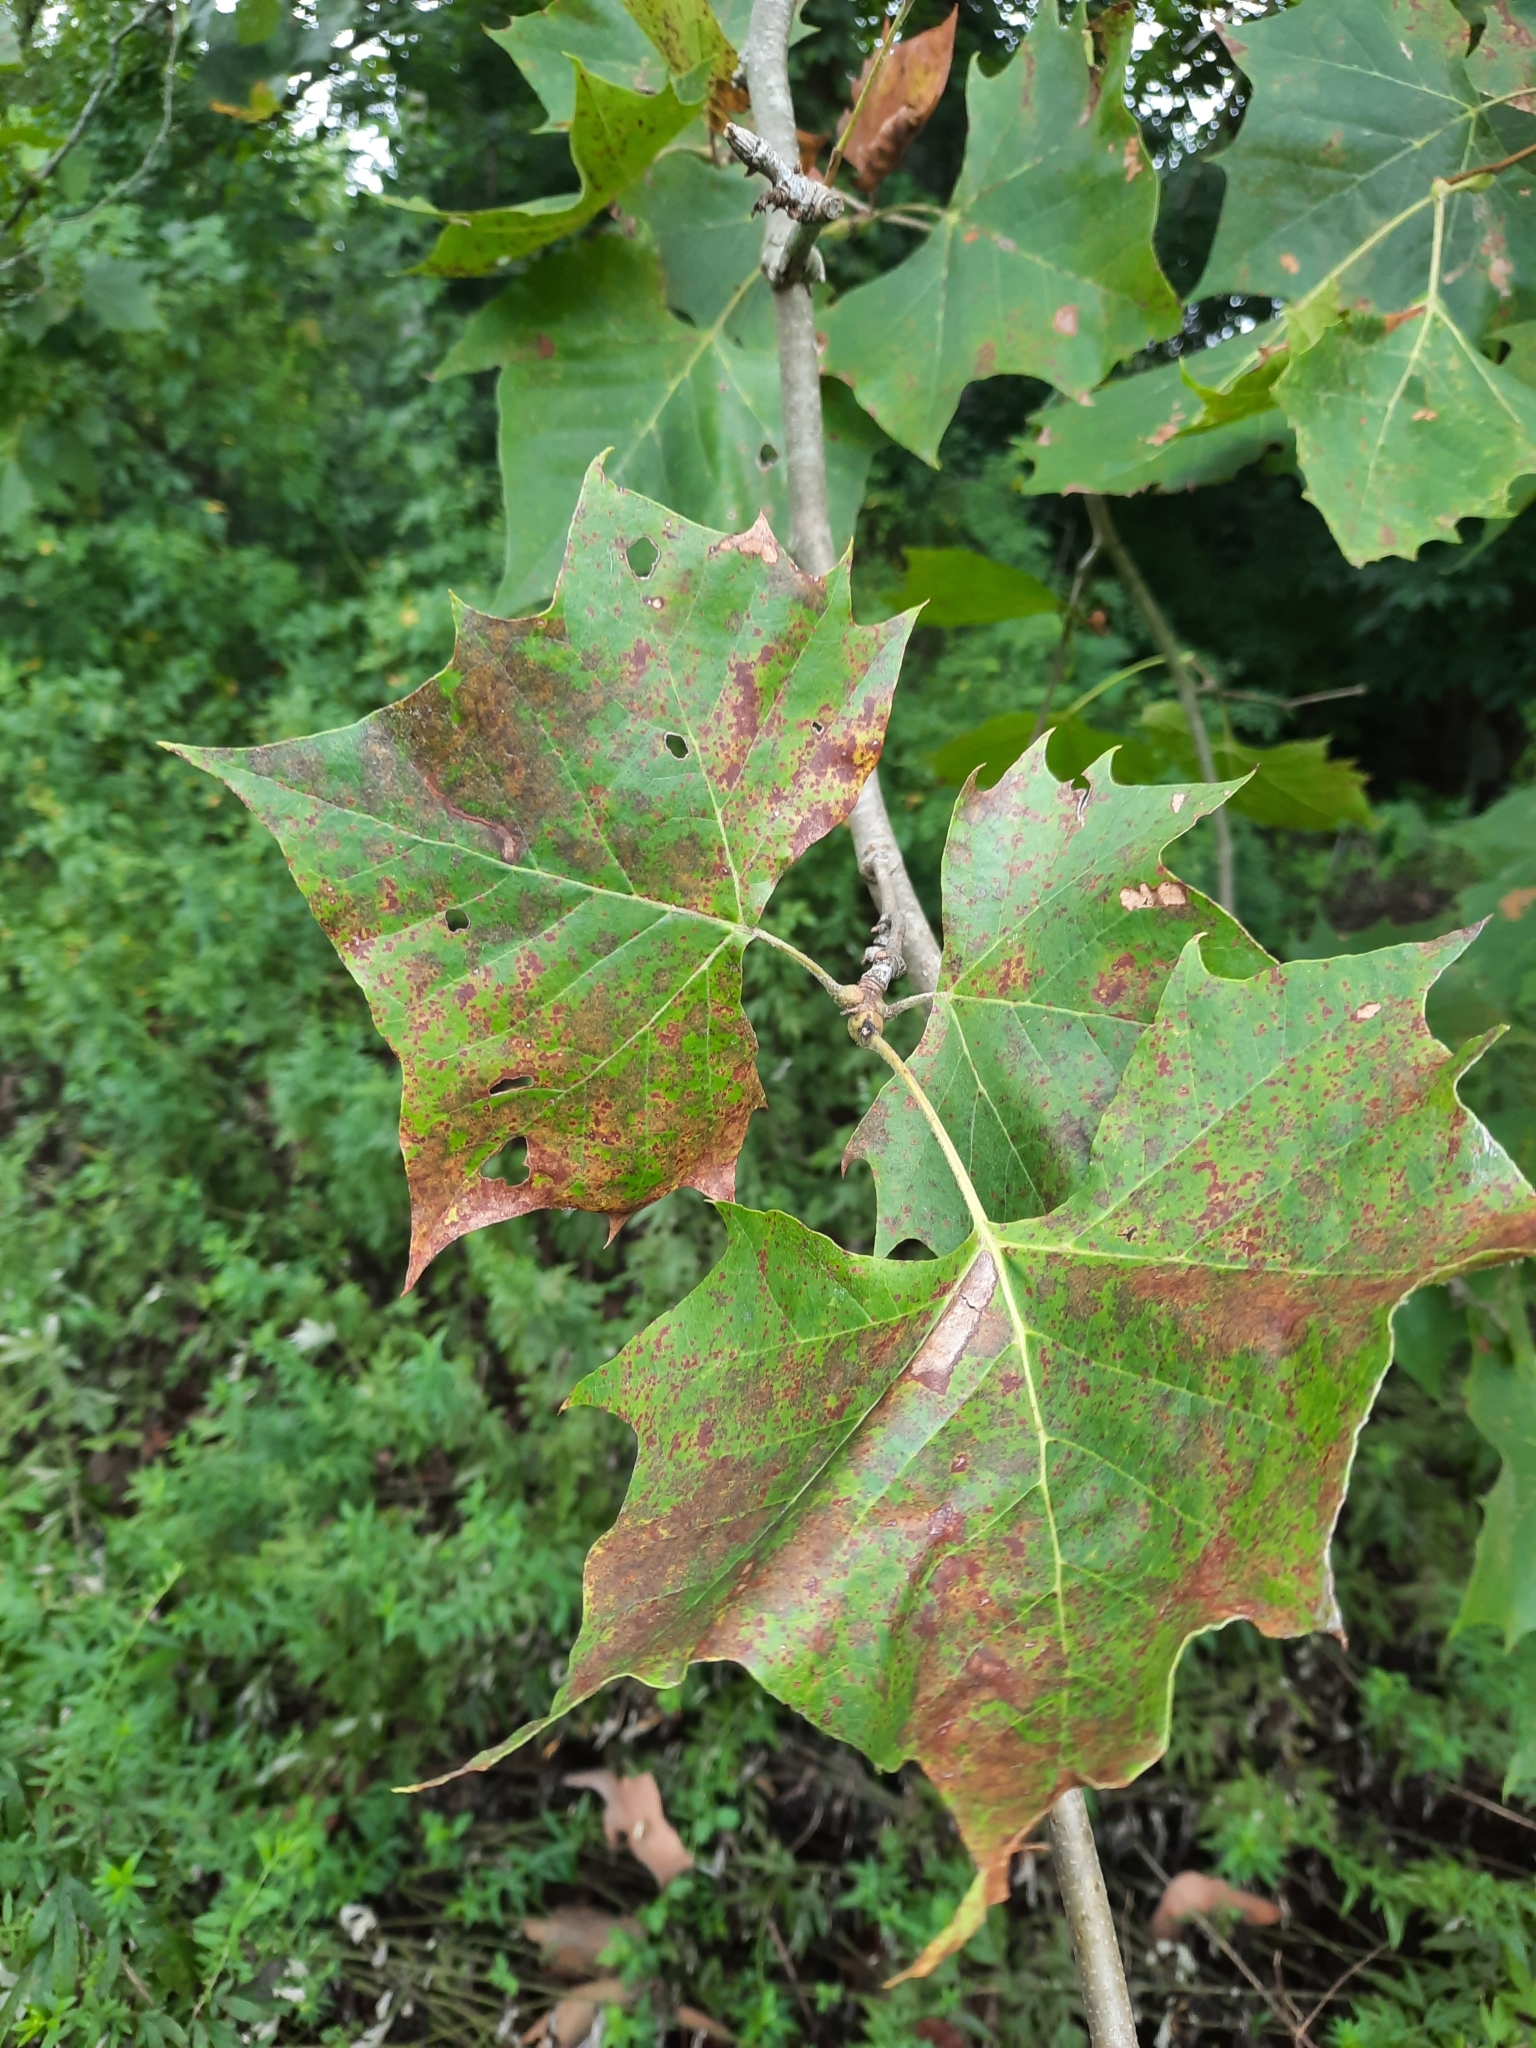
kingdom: Plantae
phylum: Tracheophyta
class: Magnoliopsida
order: Proteales
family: Platanaceae
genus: Platanus
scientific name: Platanus occidentalis
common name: American sycamore
